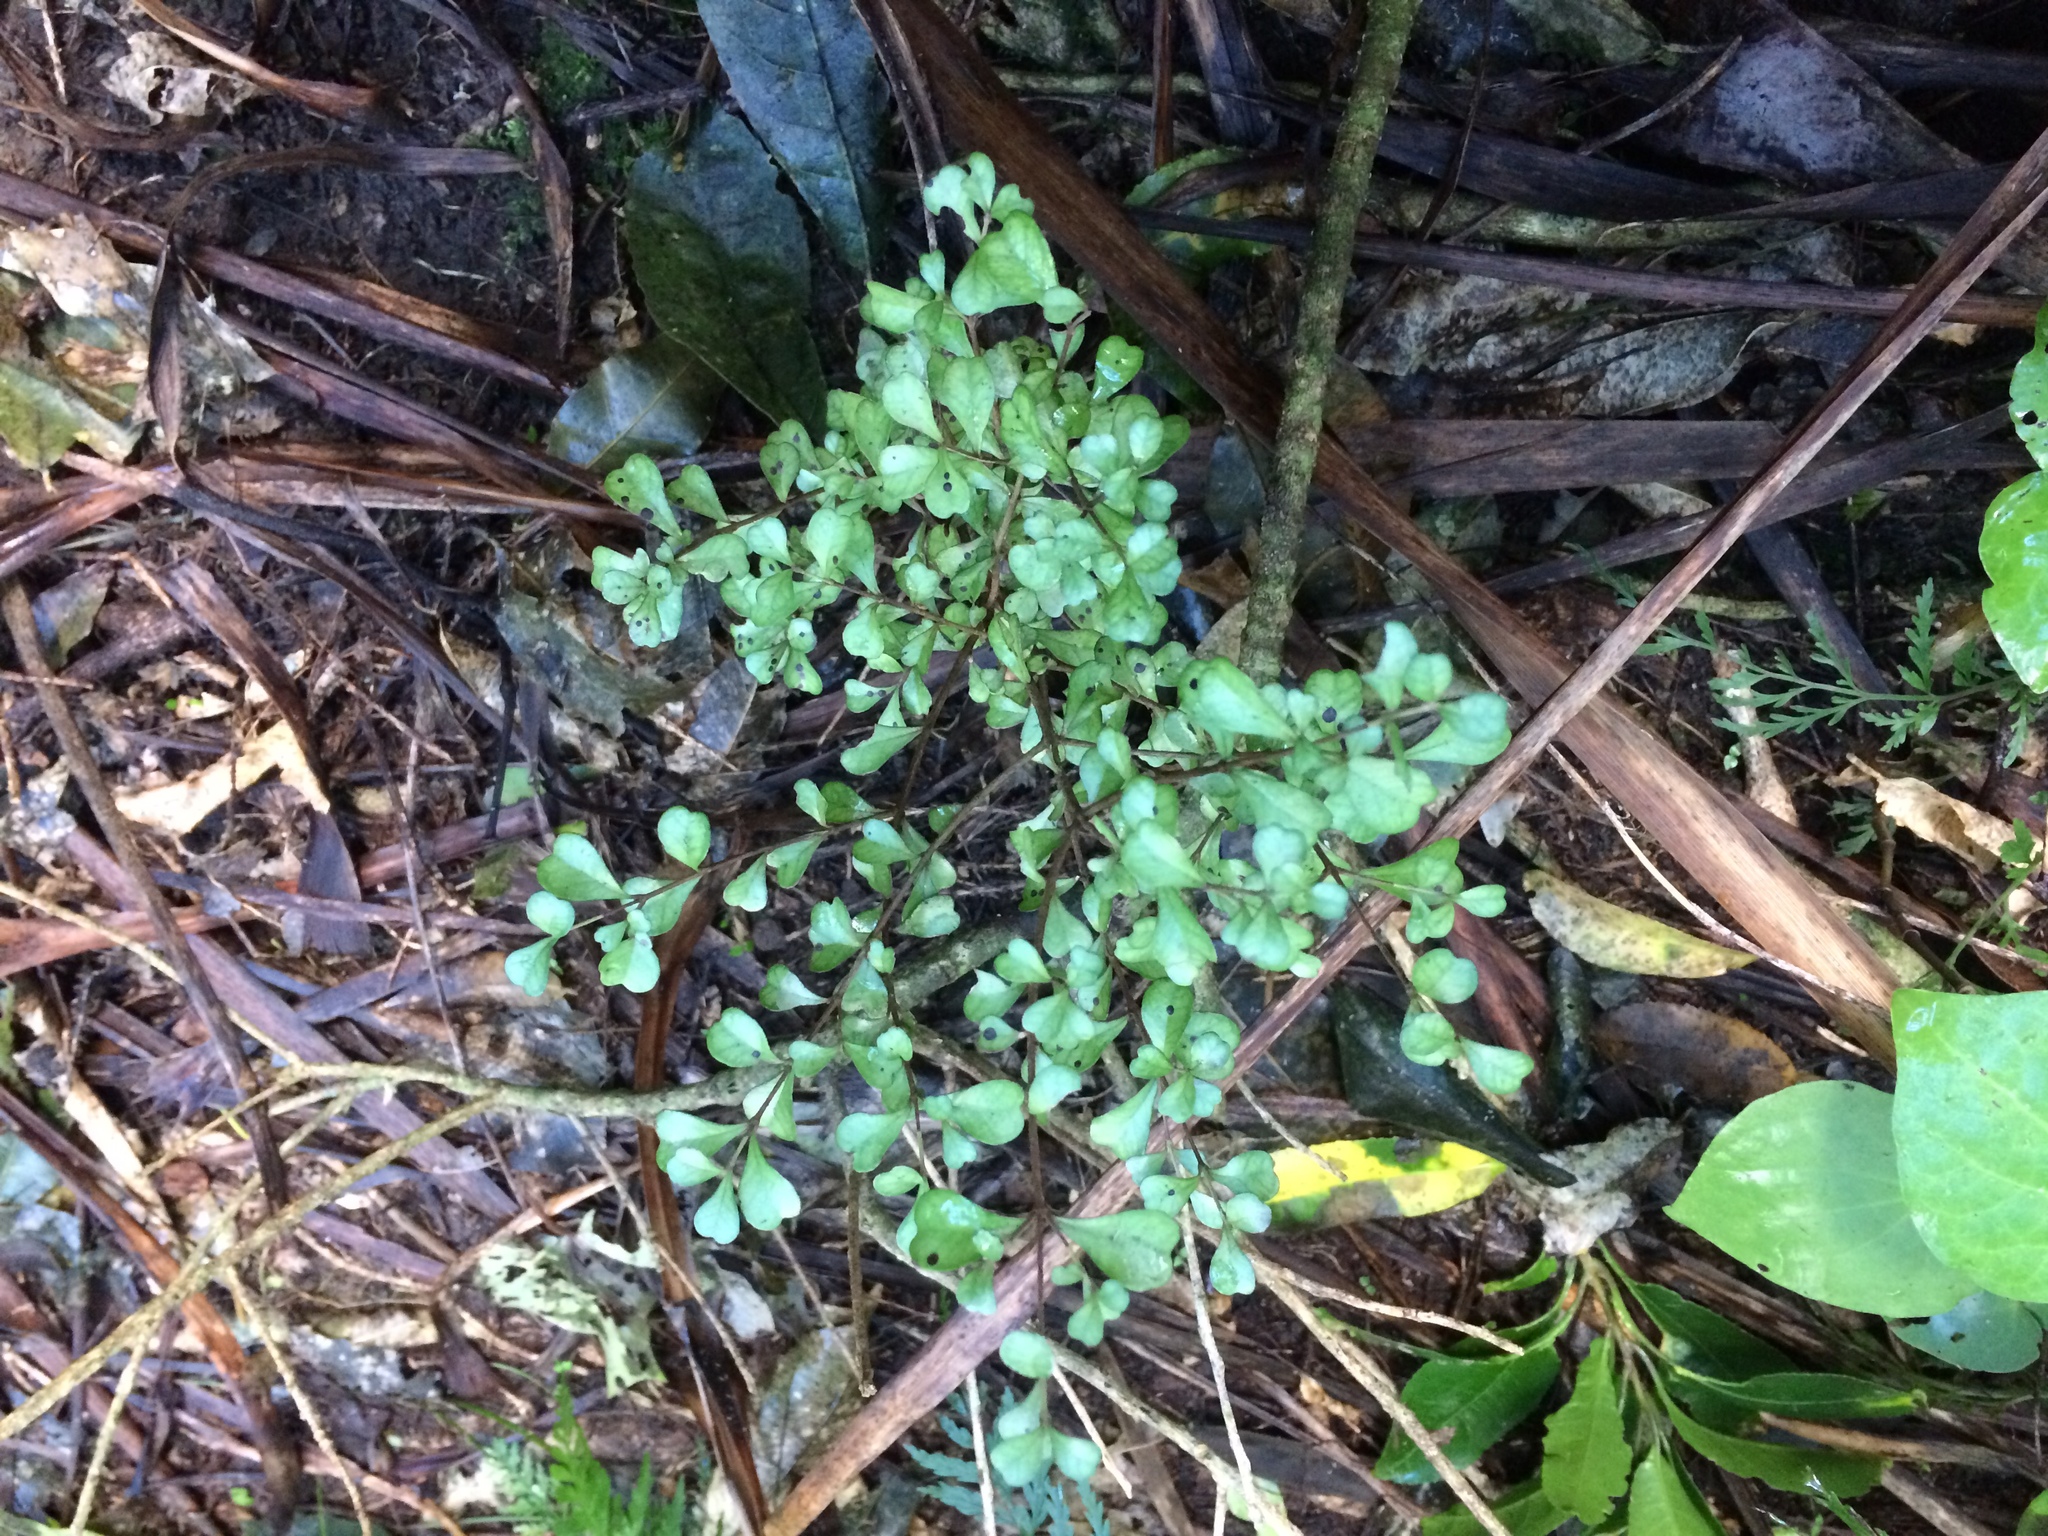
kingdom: Plantae
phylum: Tracheophyta
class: Magnoliopsida
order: Myrtales
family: Myrtaceae
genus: Lophomyrtus
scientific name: Lophomyrtus obcordata
